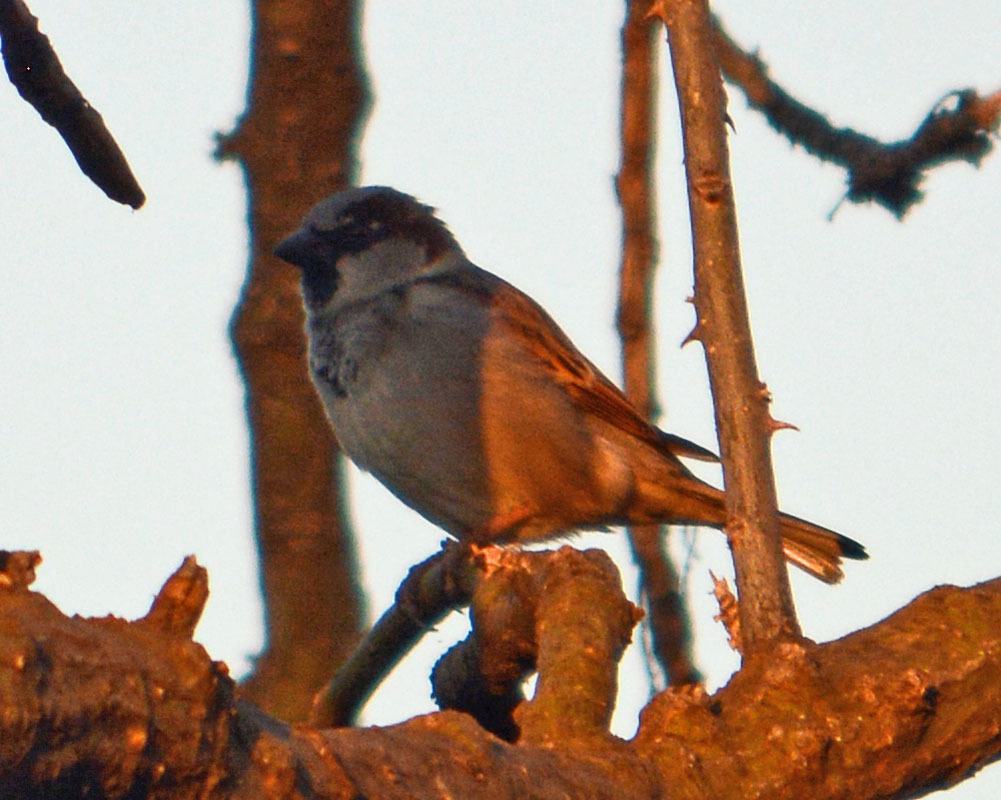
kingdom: Animalia
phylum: Chordata
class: Aves
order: Passeriformes
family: Passeridae
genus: Passer
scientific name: Passer domesticus
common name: House sparrow
